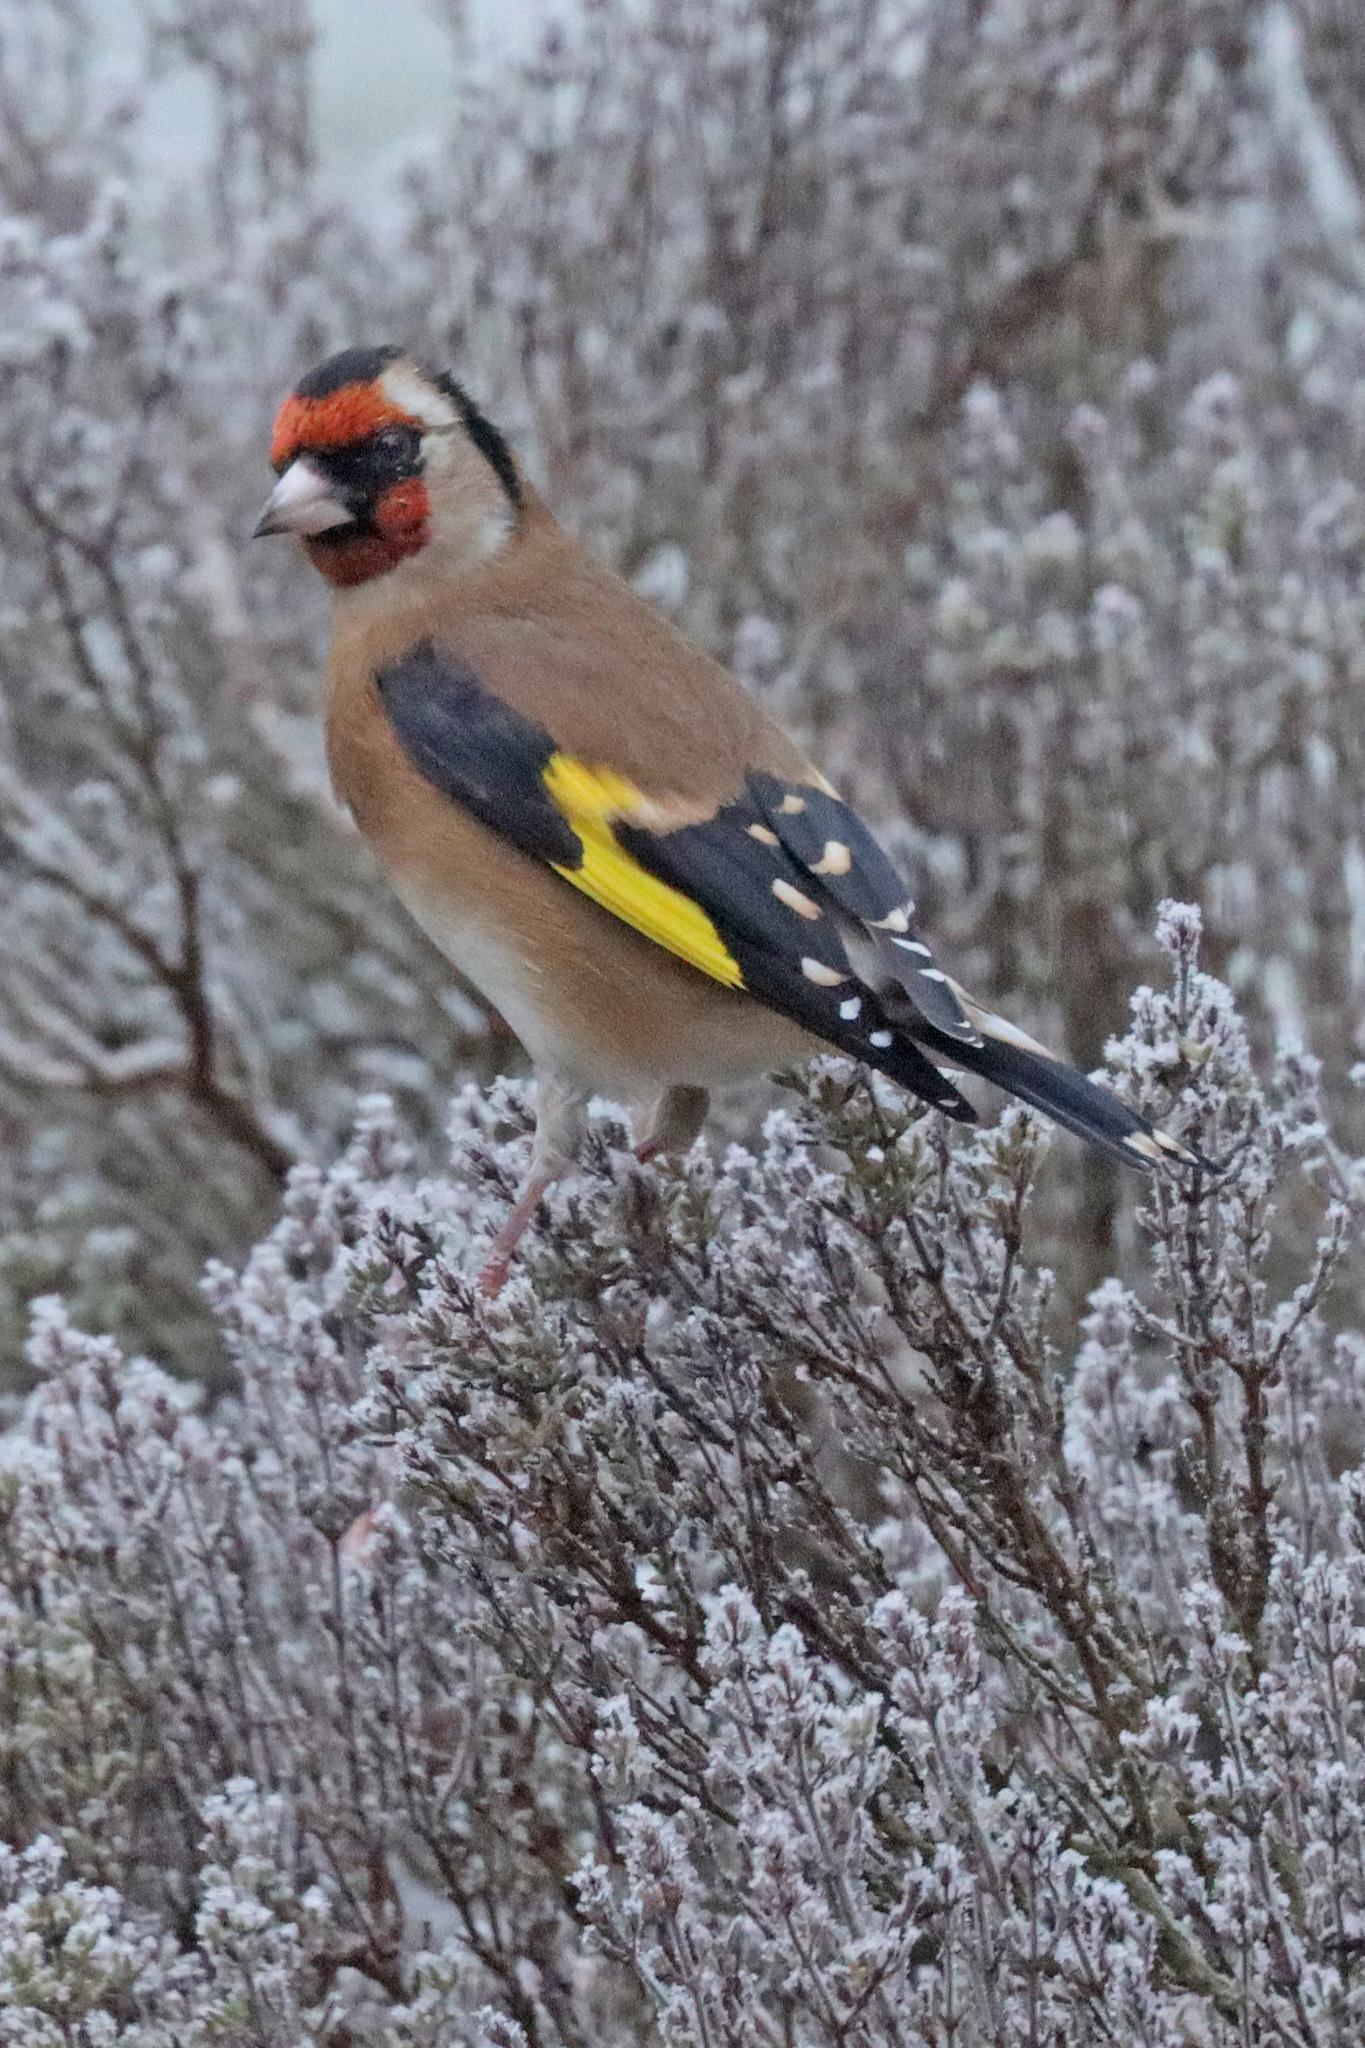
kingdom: Animalia
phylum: Chordata
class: Aves
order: Passeriformes
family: Fringillidae
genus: Carduelis
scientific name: Carduelis carduelis
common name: European goldfinch
